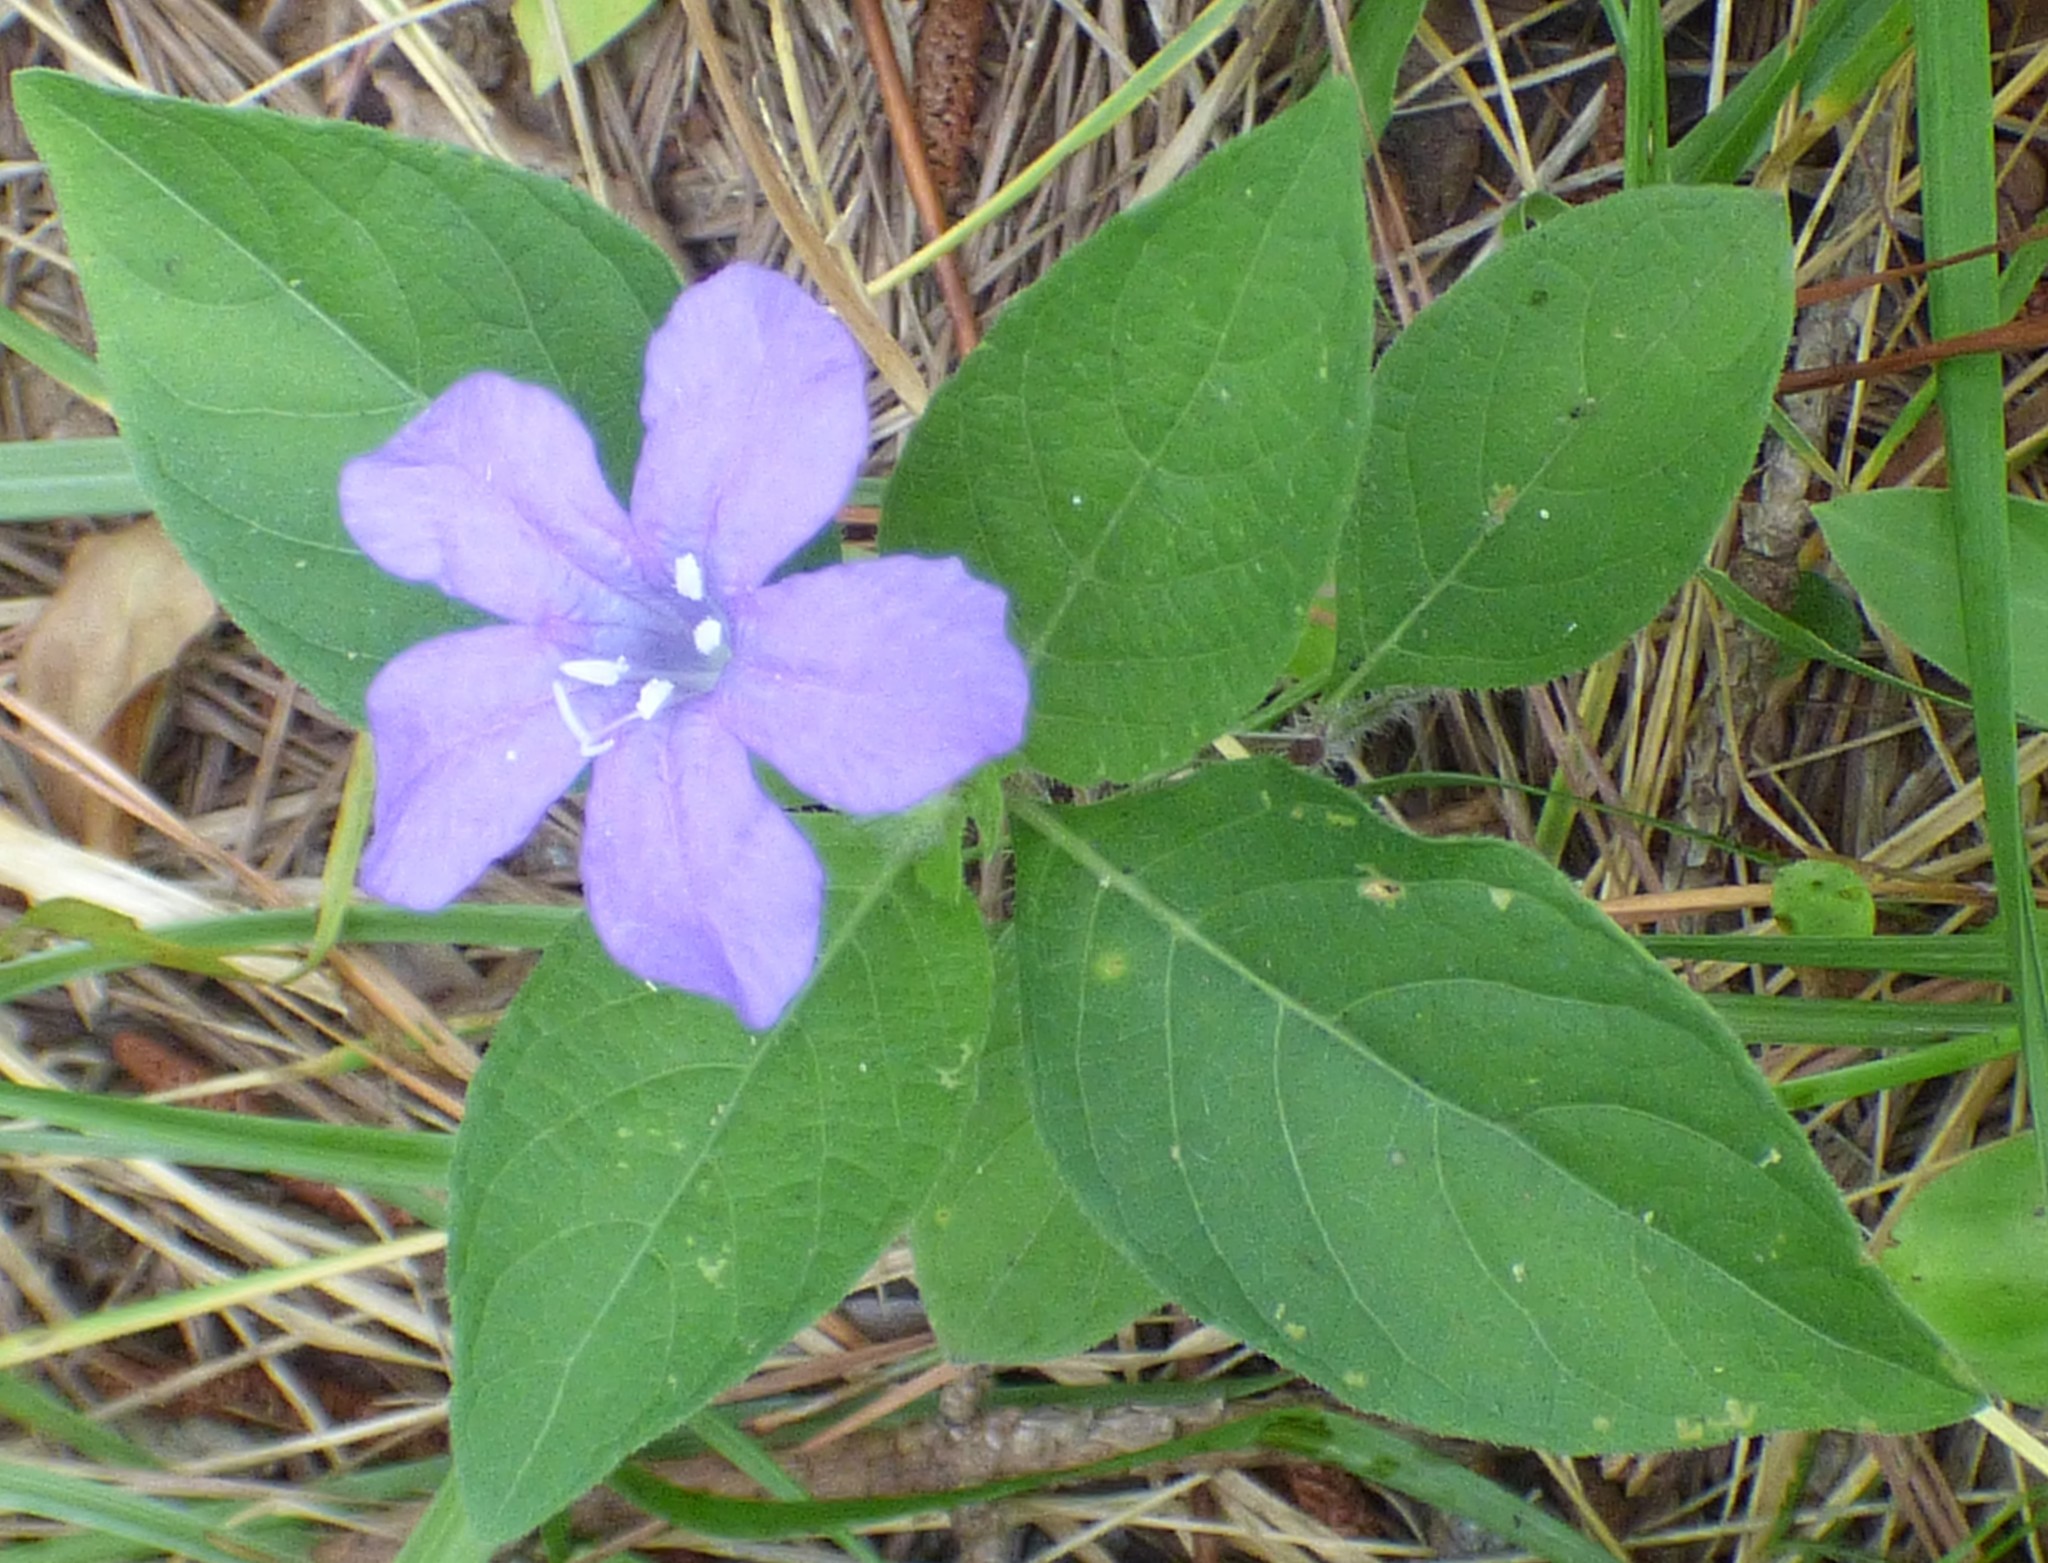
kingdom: Plantae
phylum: Tracheophyta
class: Magnoliopsida
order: Lamiales
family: Acanthaceae
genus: Ruellia
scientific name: Ruellia caroliniensis
